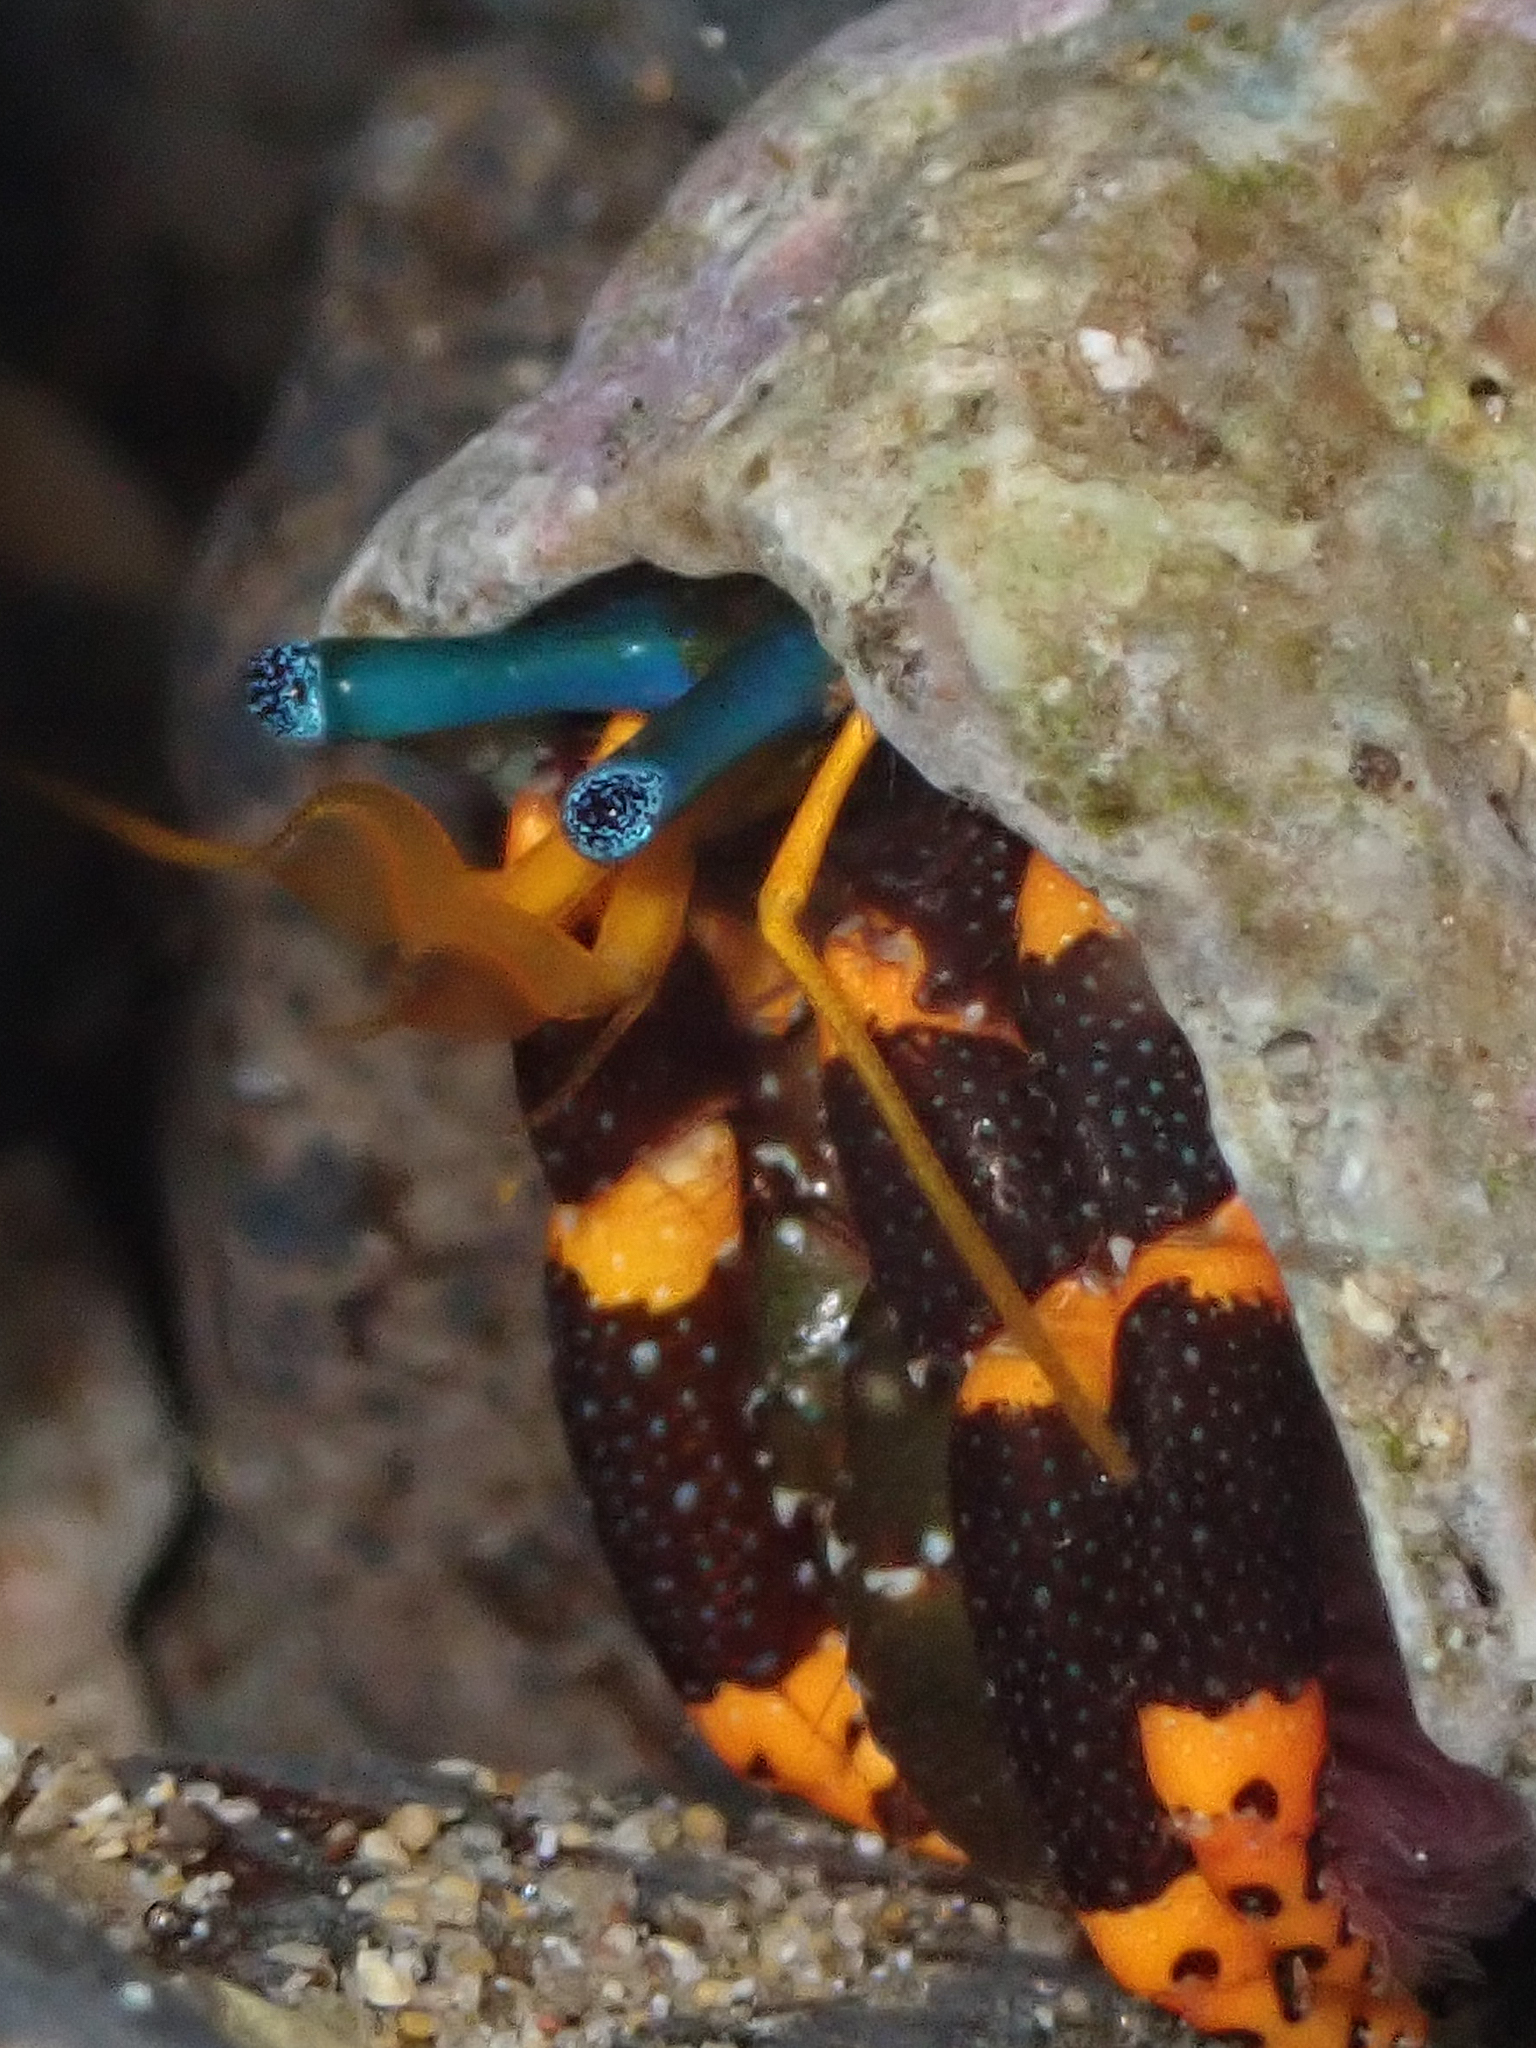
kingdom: Animalia
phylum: Arthropoda
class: Malacostraca
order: Decapoda
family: Diogenidae
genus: Calcinus
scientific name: Calcinus pictus
